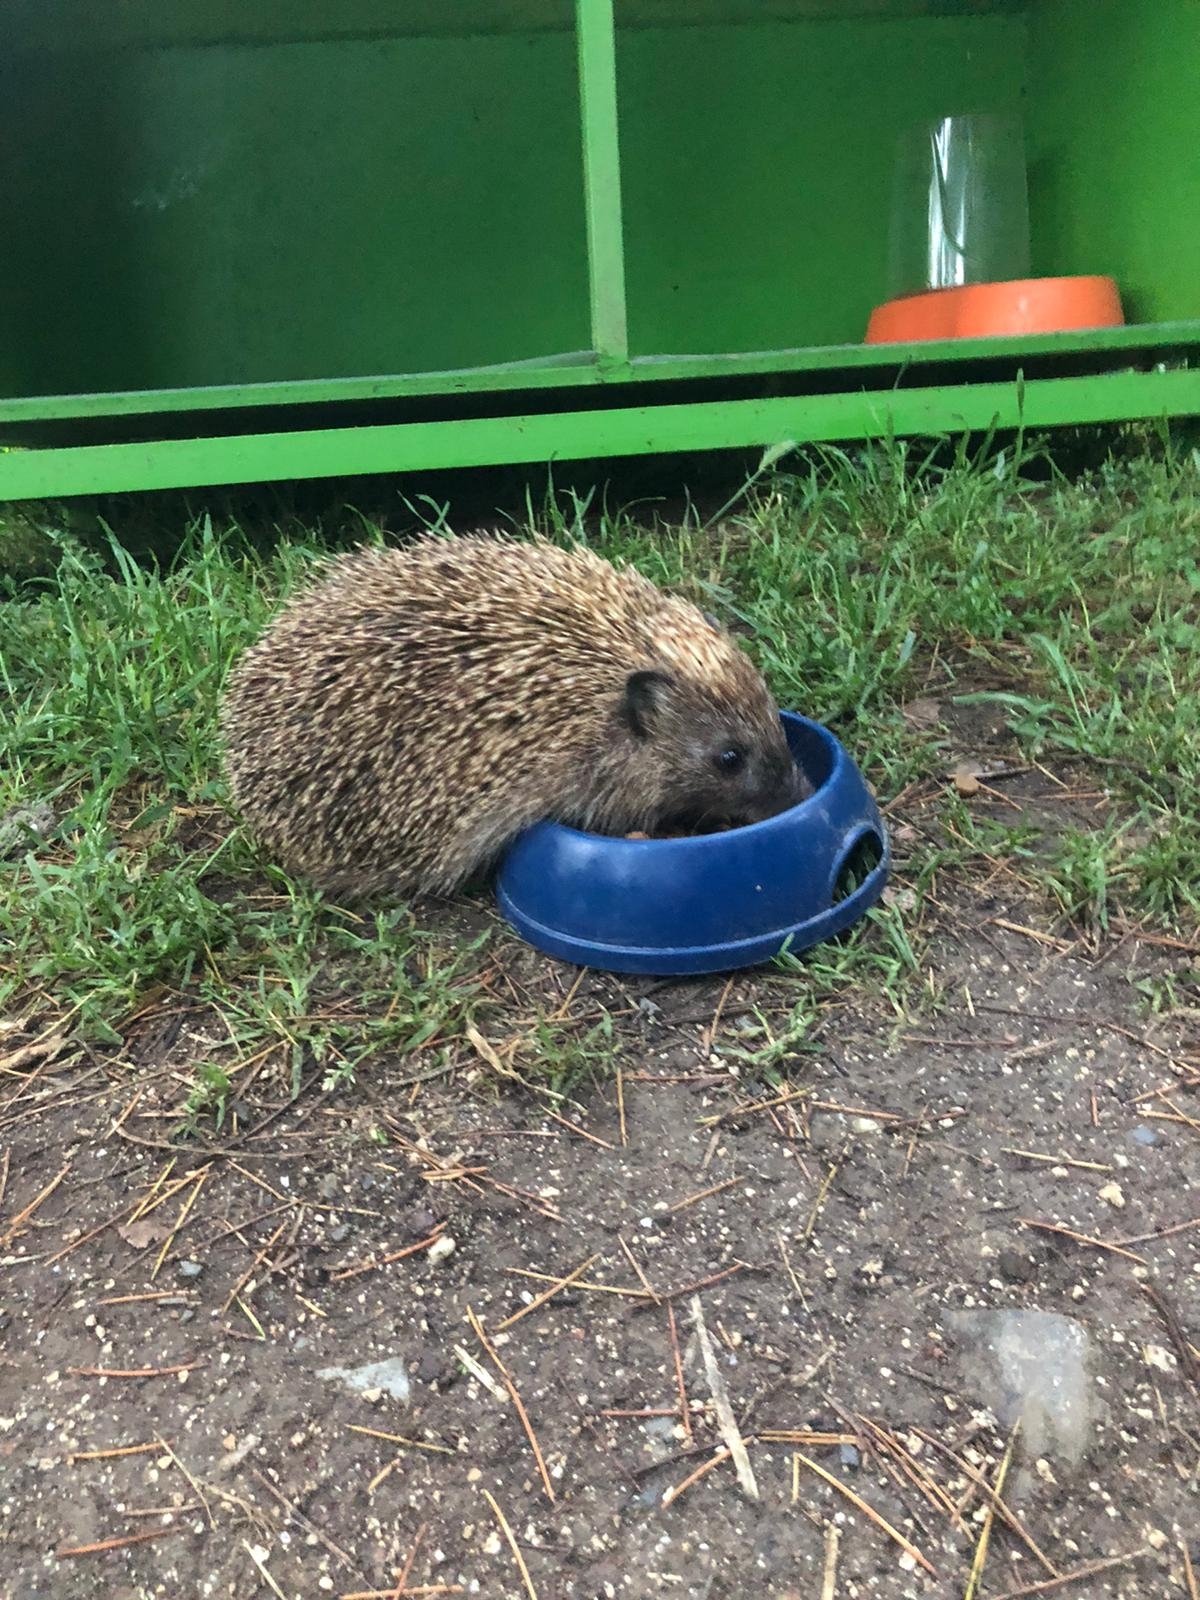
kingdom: Animalia
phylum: Chordata
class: Mammalia
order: Erinaceomorpha
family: Erinaceidae
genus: Erinaceus
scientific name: Erinaceus roumanicus
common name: Northern white-breasted hedgehog
